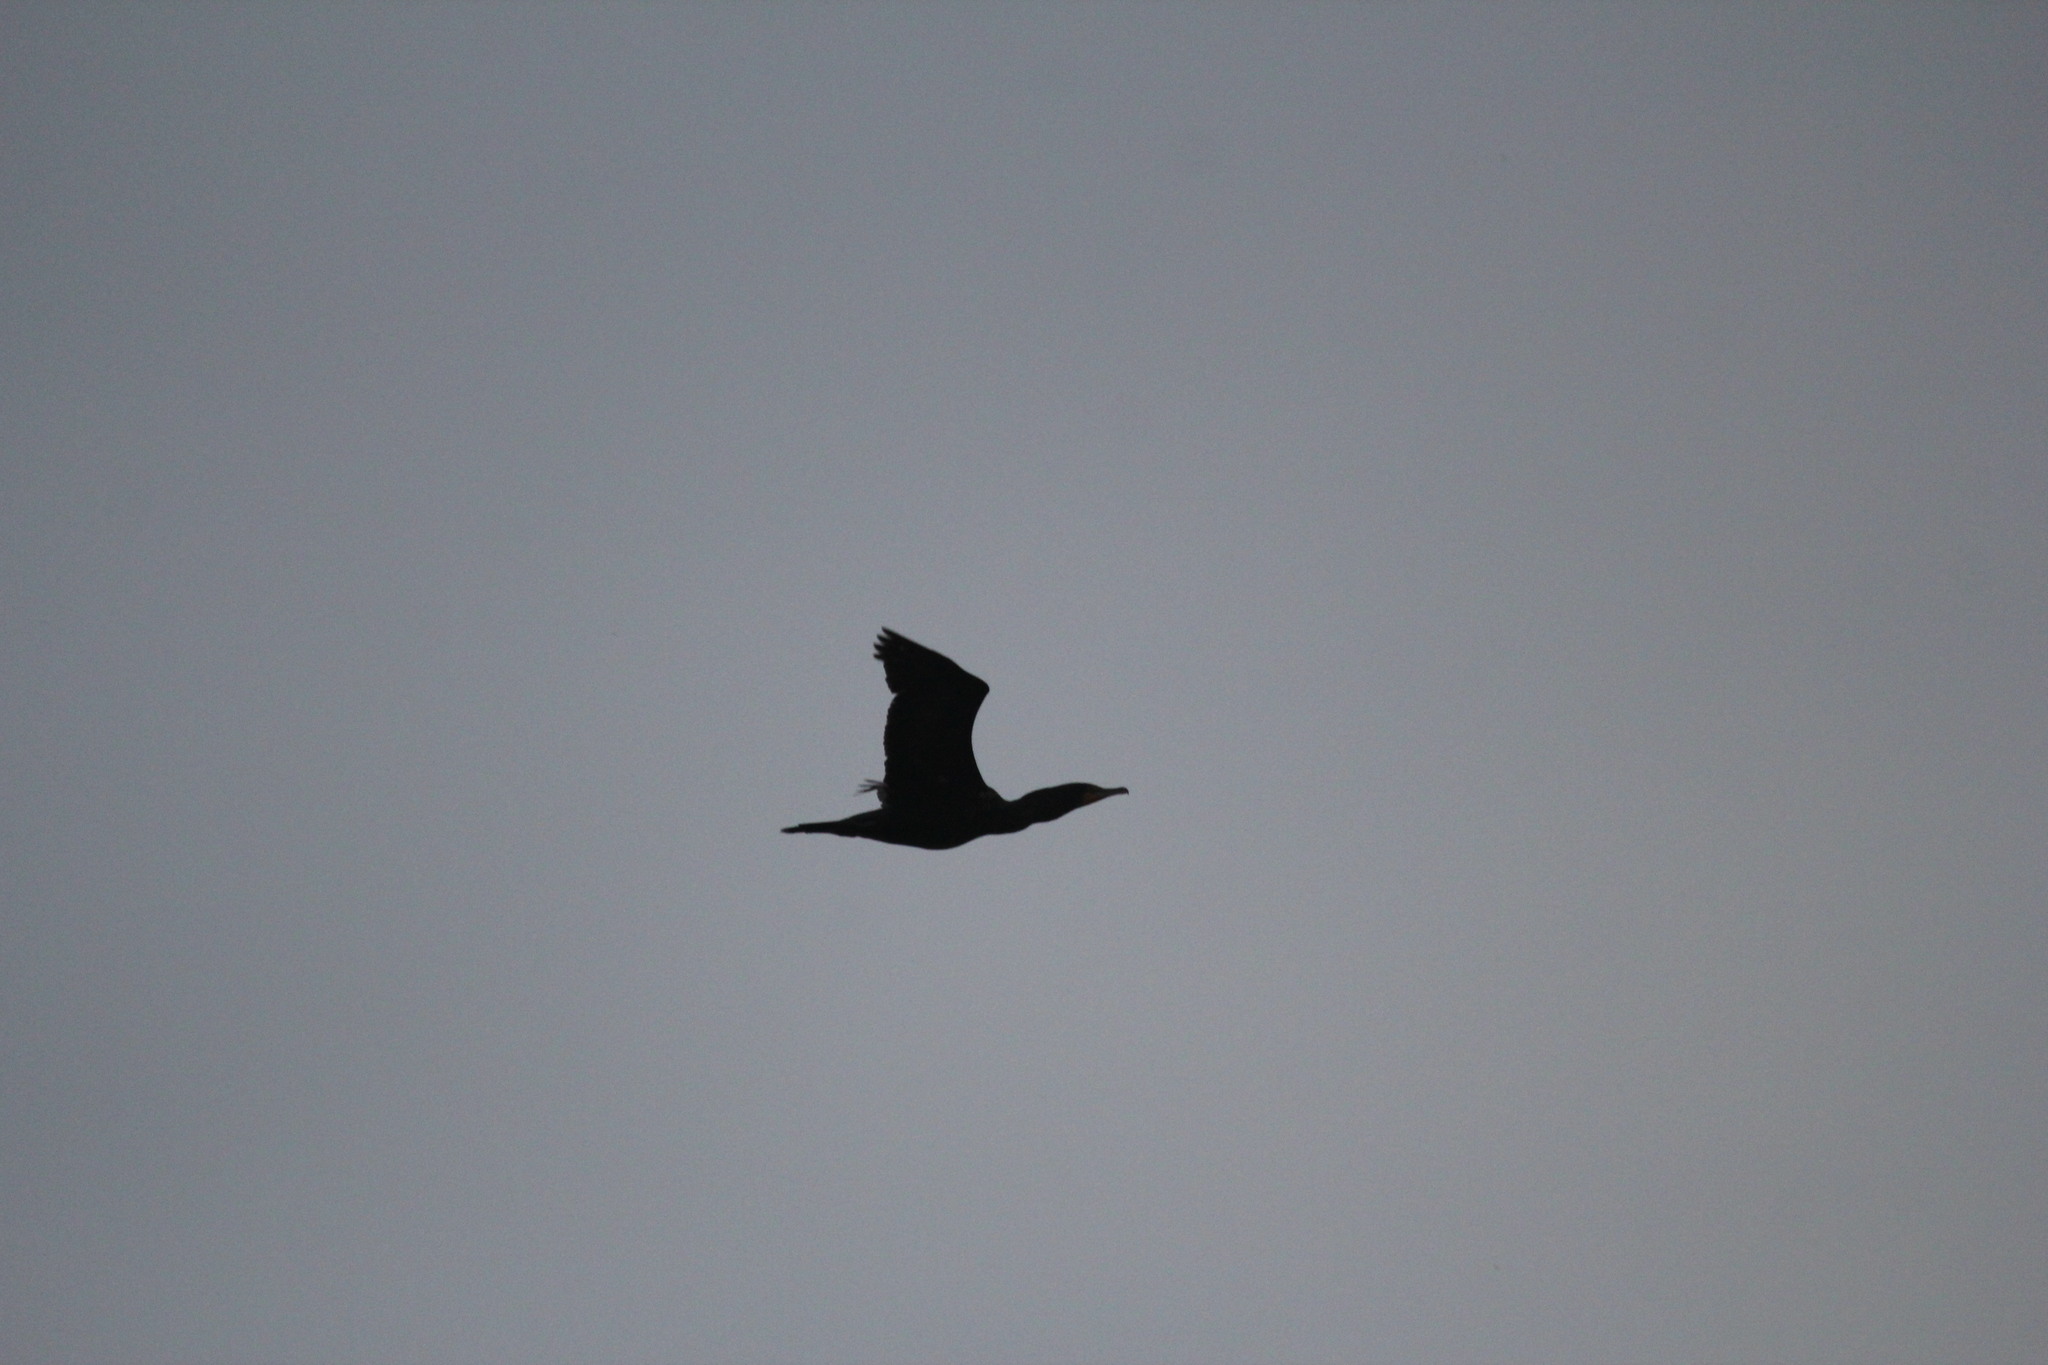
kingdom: Animalia
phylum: Chordata
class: Aves
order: Suliformes
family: Phalacrocoracidae
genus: Phalacrocorax
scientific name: Phalacrocorax auritus
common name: Double-crested cormorant
